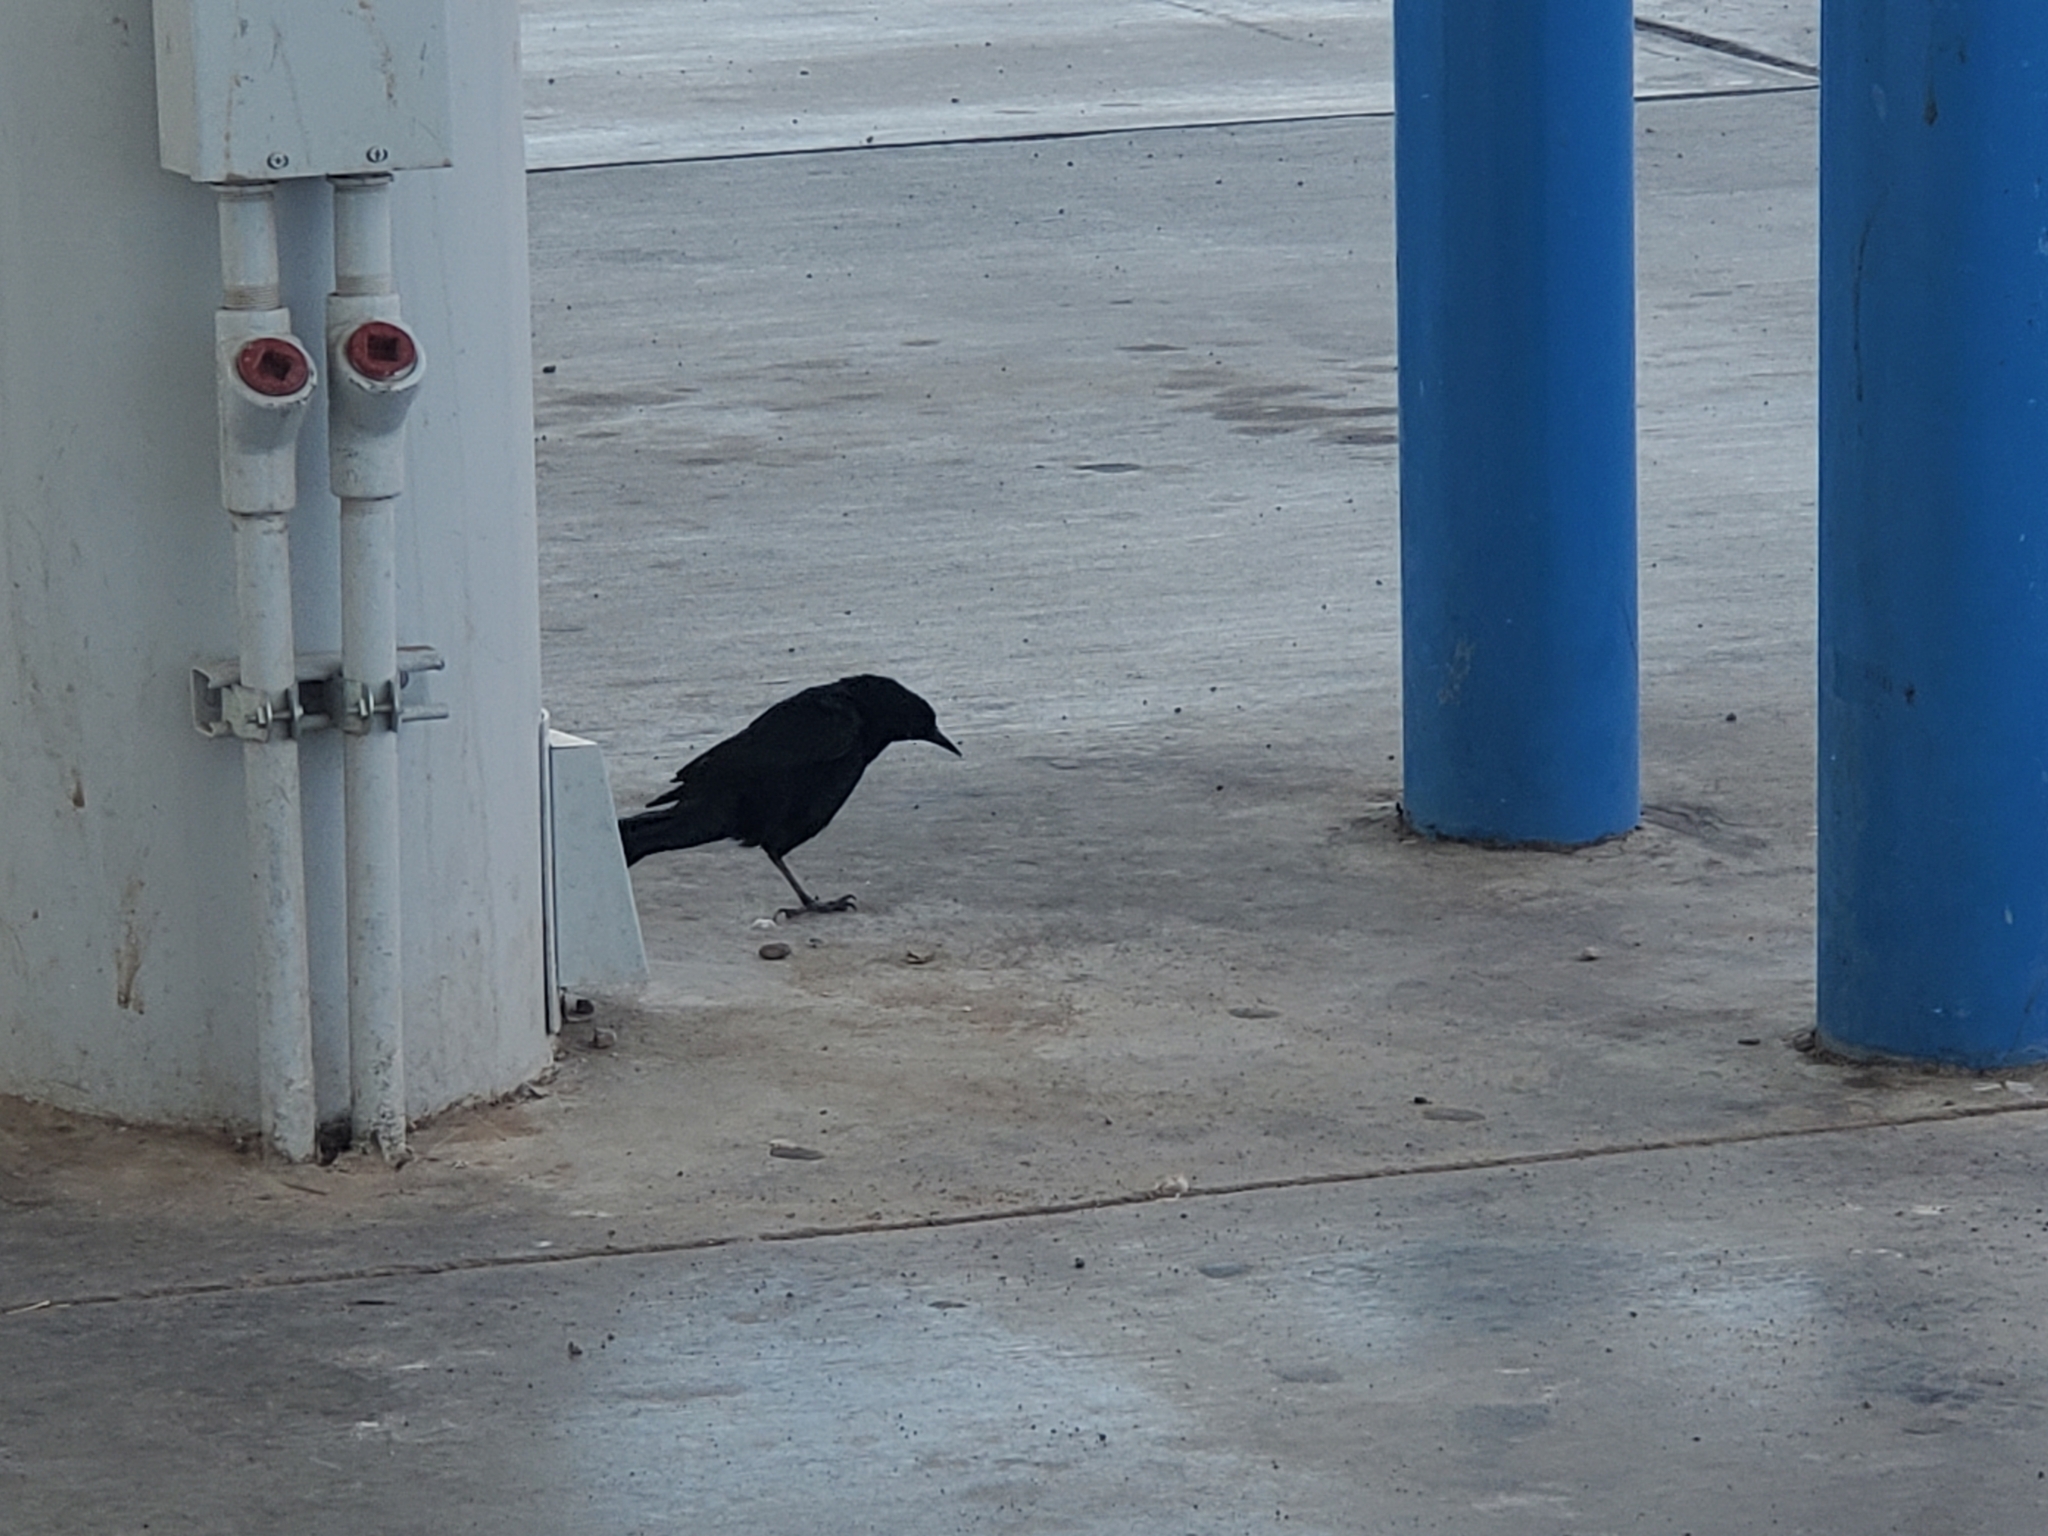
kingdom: Animalia
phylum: Chordata
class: Aves
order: Passeriformes
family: Icteridae
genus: Quiscalus
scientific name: Quiscalus mexicanus
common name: Great-tailed grackle
